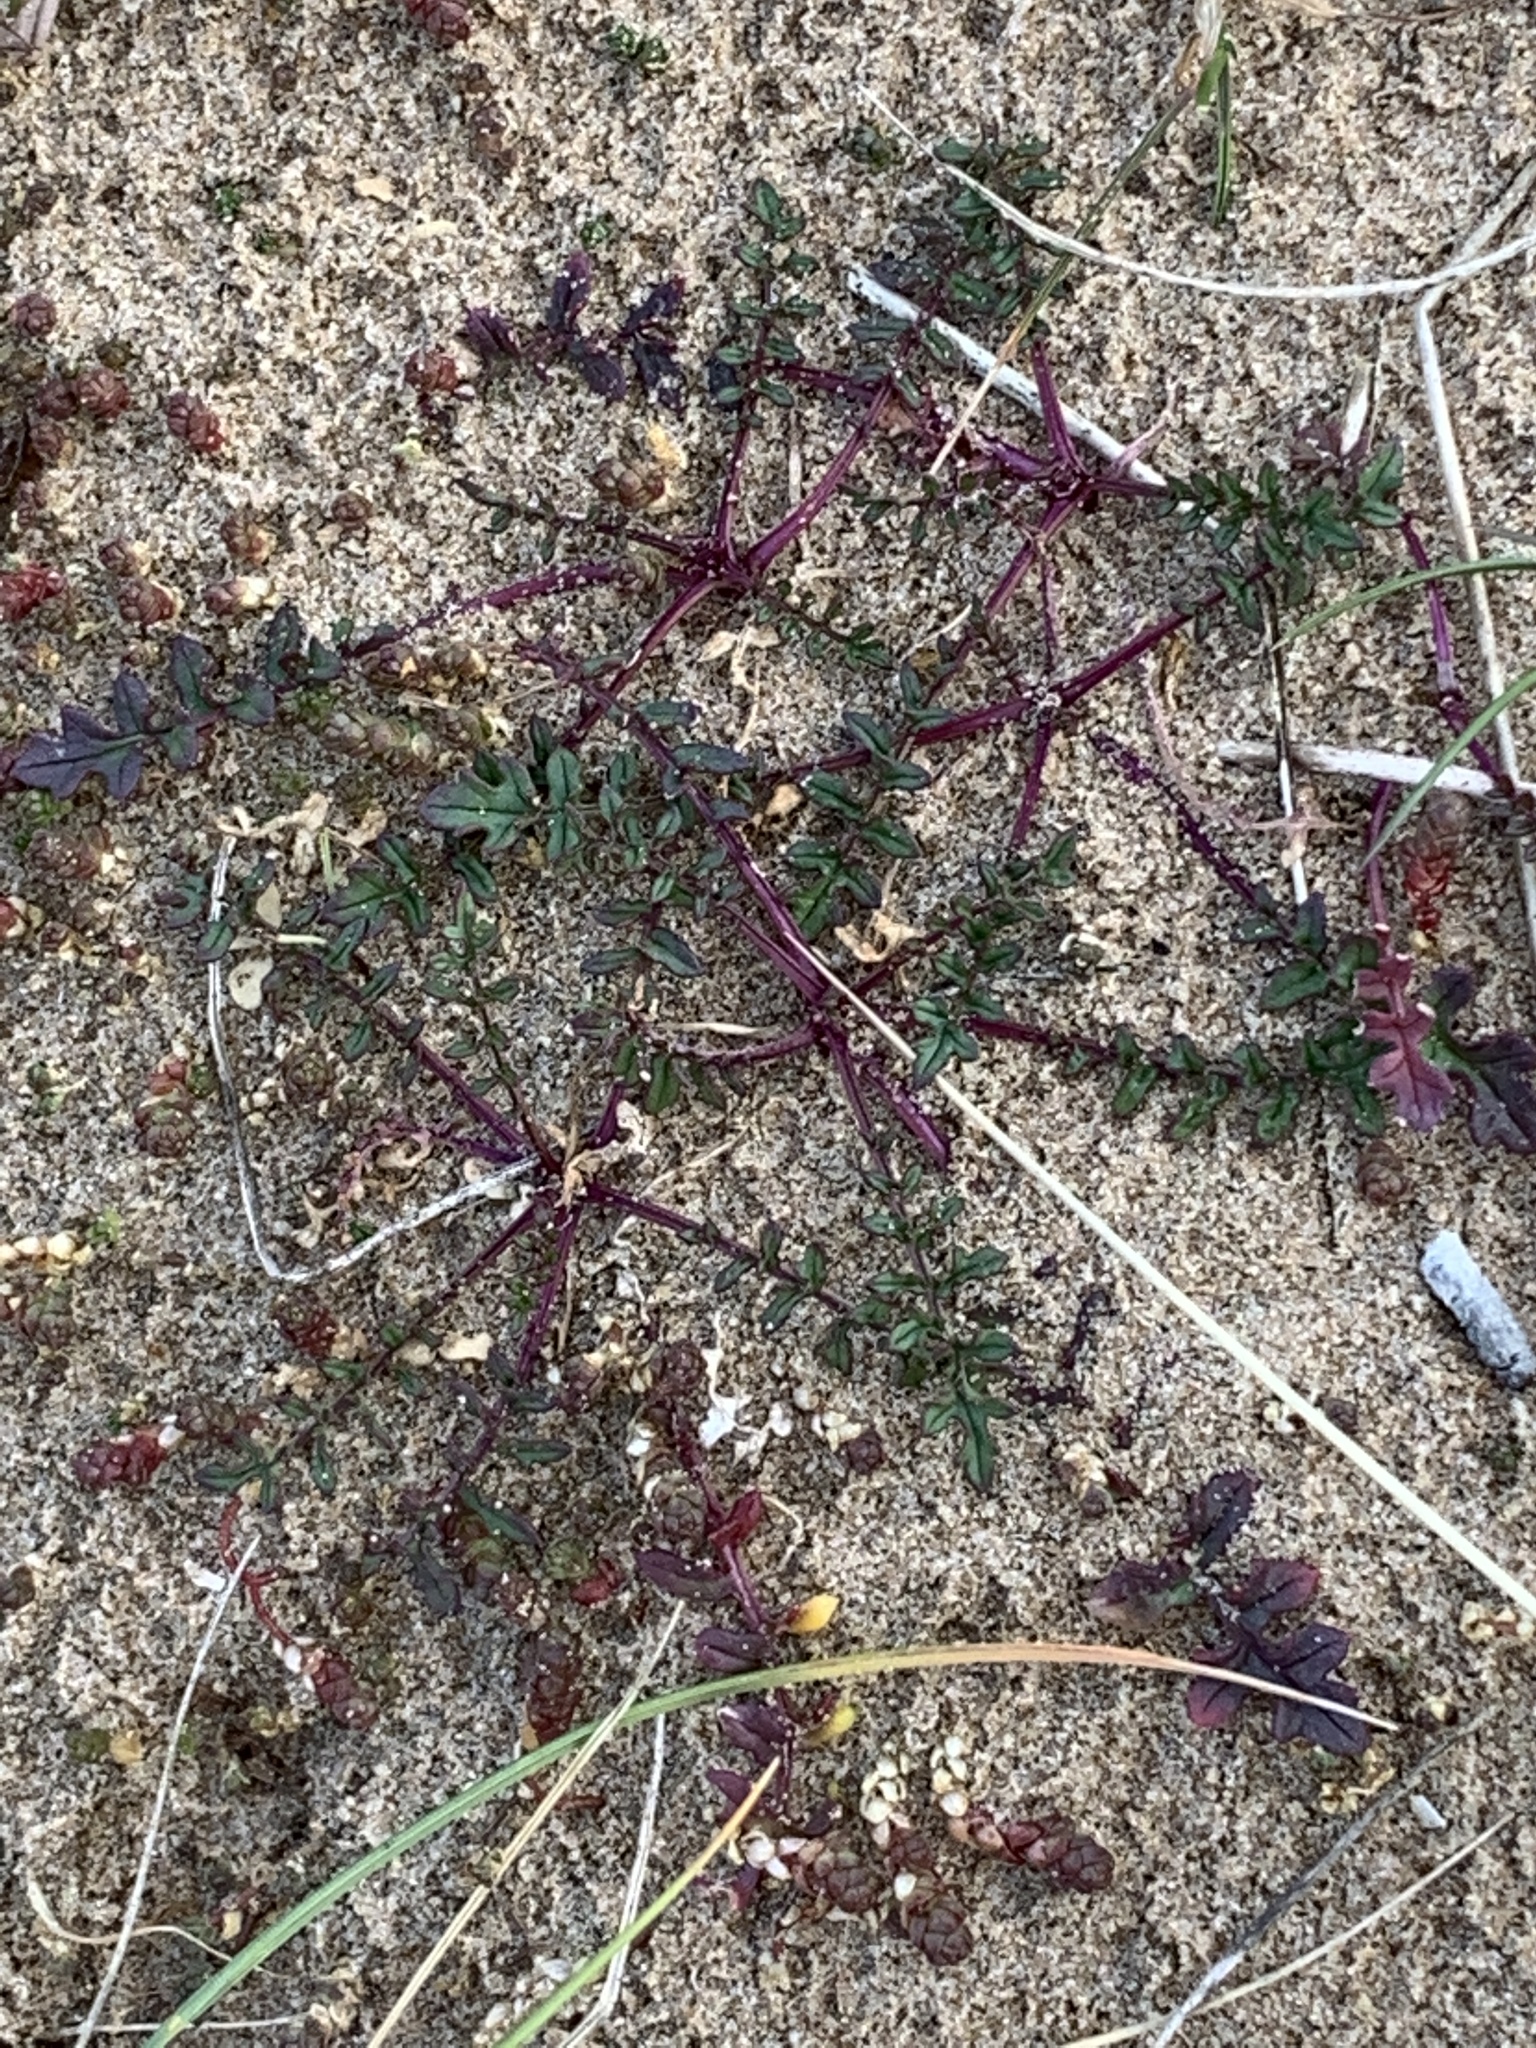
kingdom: Plantae
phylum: Tracheophyta
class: Magnoliopsida
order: Brassicales
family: Brassicaceae
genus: Coincya
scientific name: Coincya monensis
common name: Star-mustard
